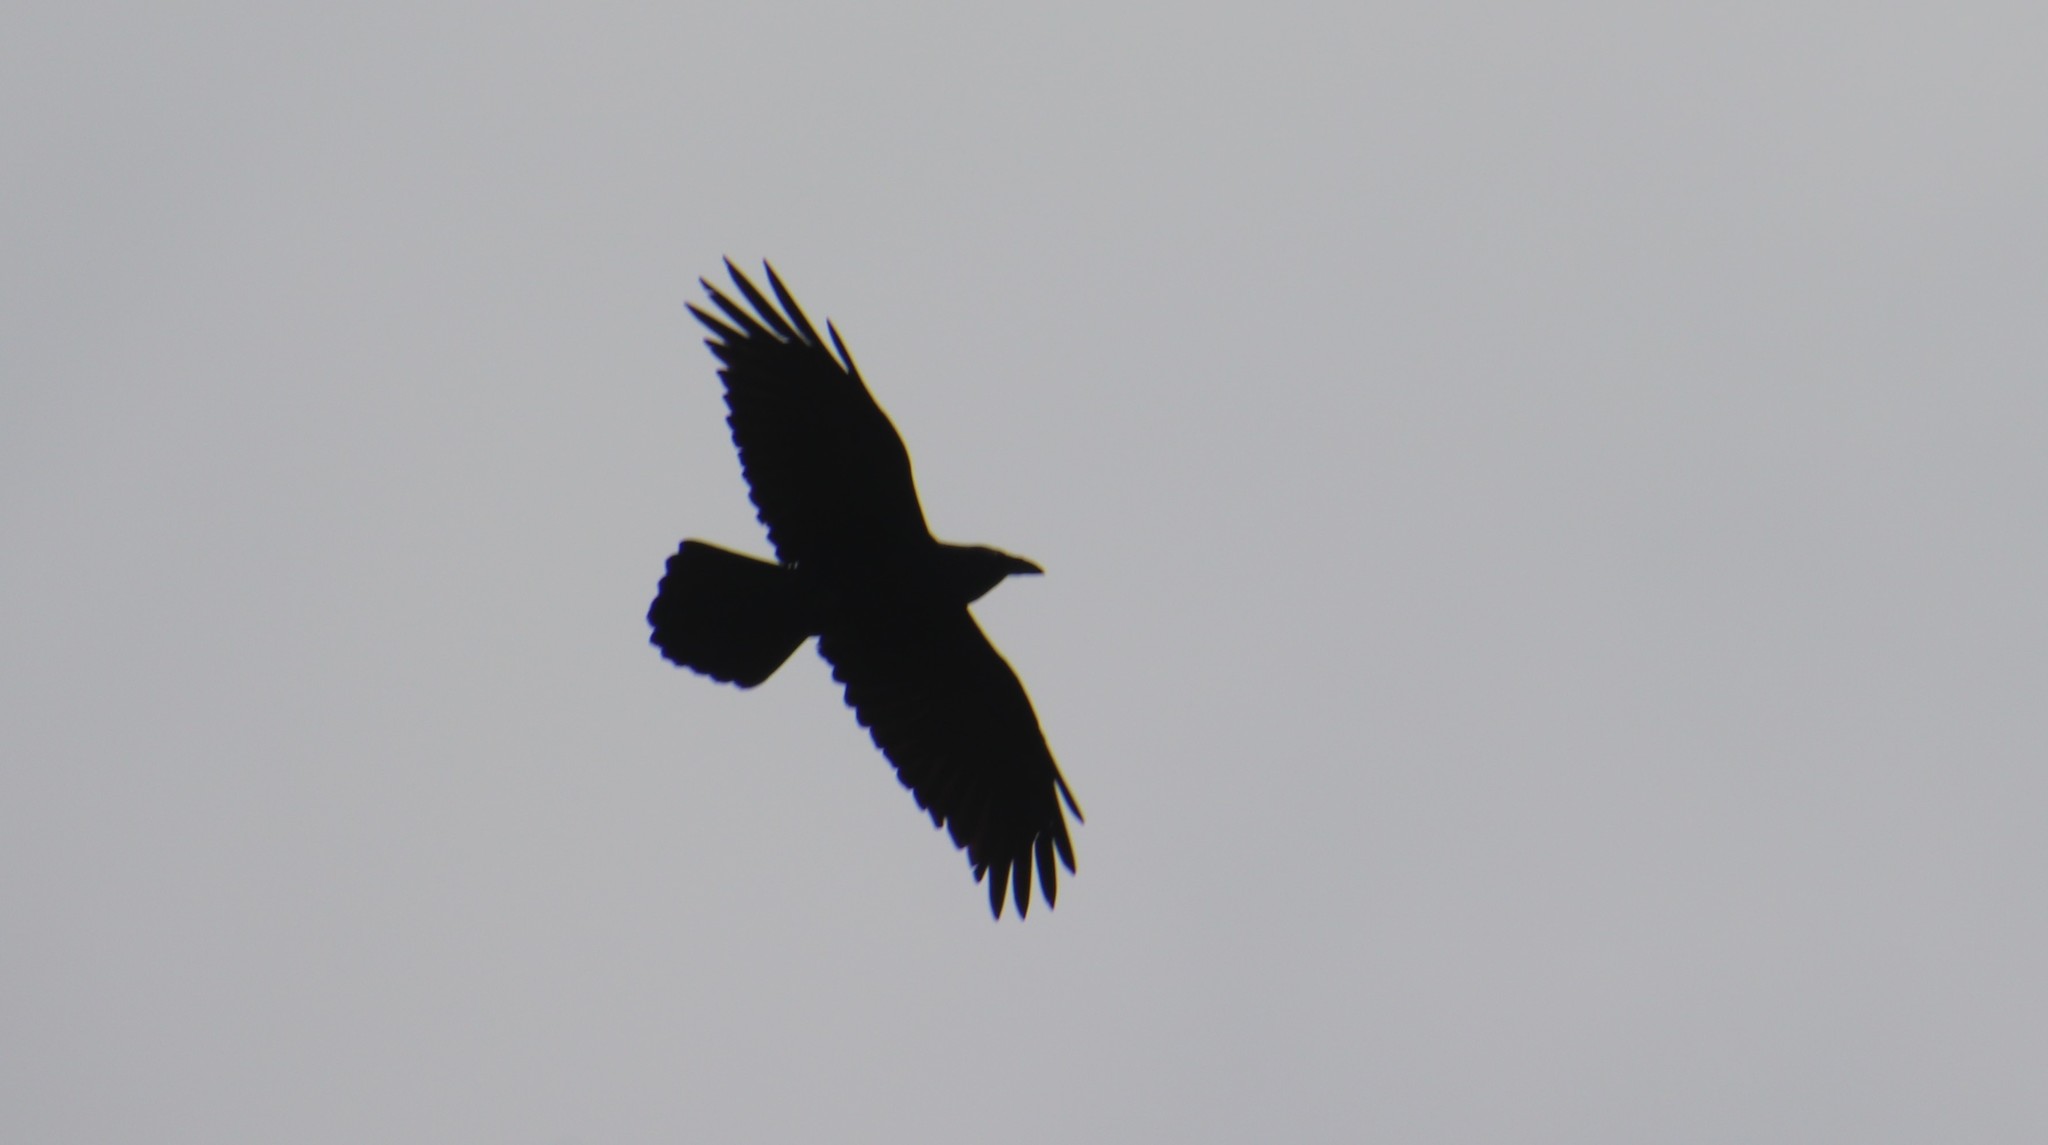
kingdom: Animalia
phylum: Chordata
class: Aves
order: Passeriformes
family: Corvidae
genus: Corvus
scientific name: Corvus corax
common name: Common raven
